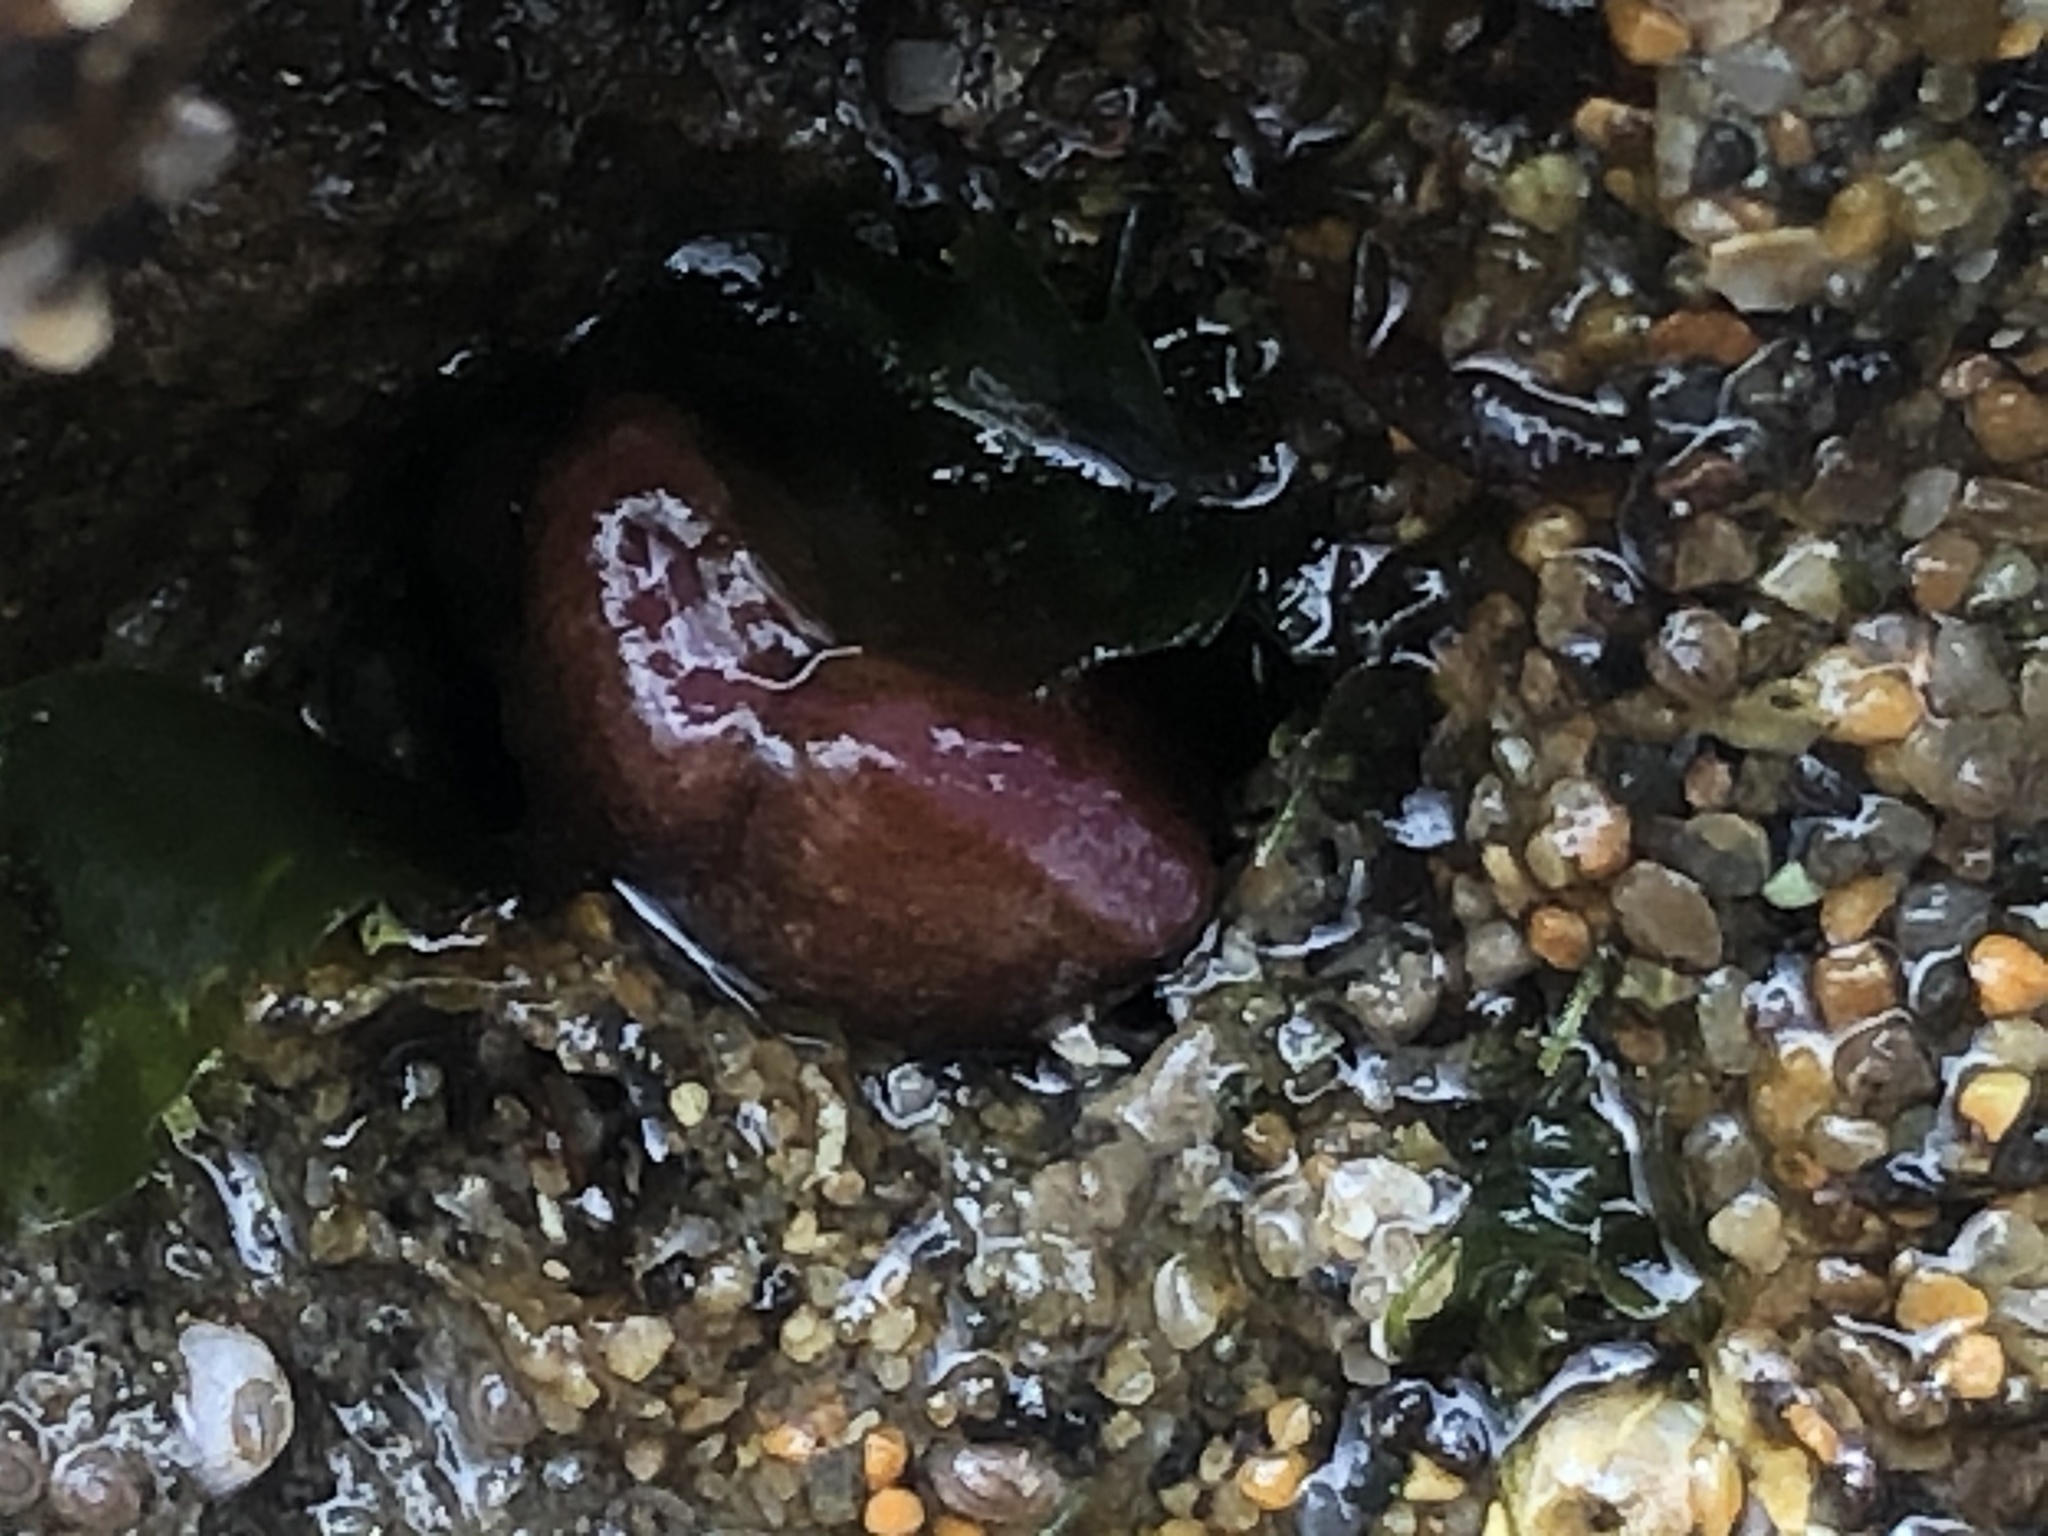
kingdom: Animalia
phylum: Mollusca
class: Bivalvia
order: Adapedonta
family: Hiatellidae
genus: Hiatella
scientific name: Hiatella arctica
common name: Arctic hiatella
